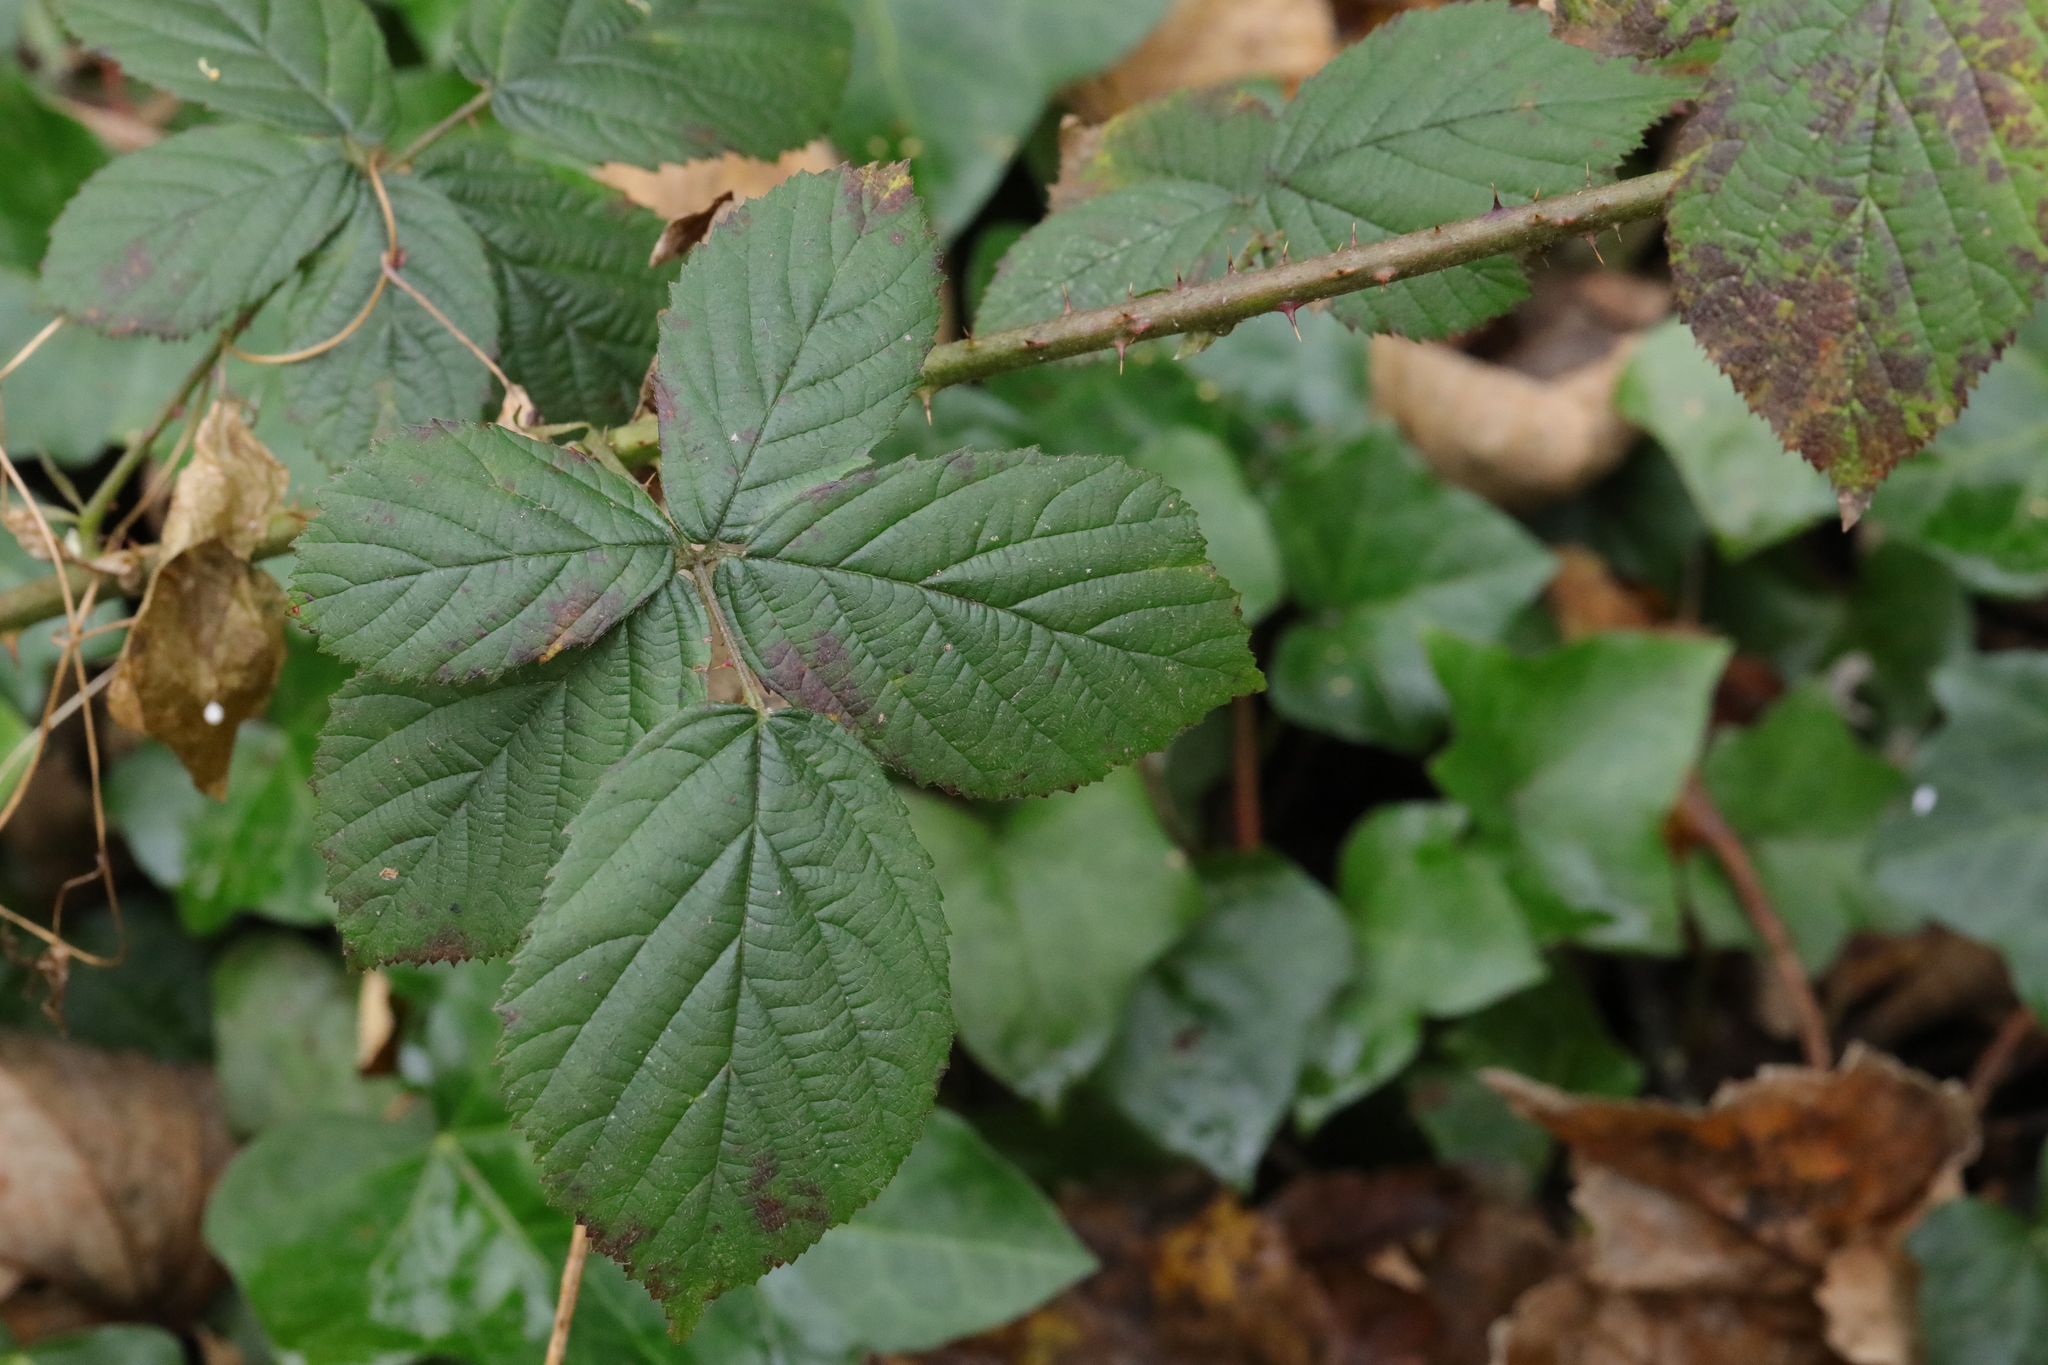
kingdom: Plantae
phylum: Tracheophyta
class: Magnoliopsida
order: Rosales
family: Rosaceae
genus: Rubus
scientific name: Rubus horrefactus
